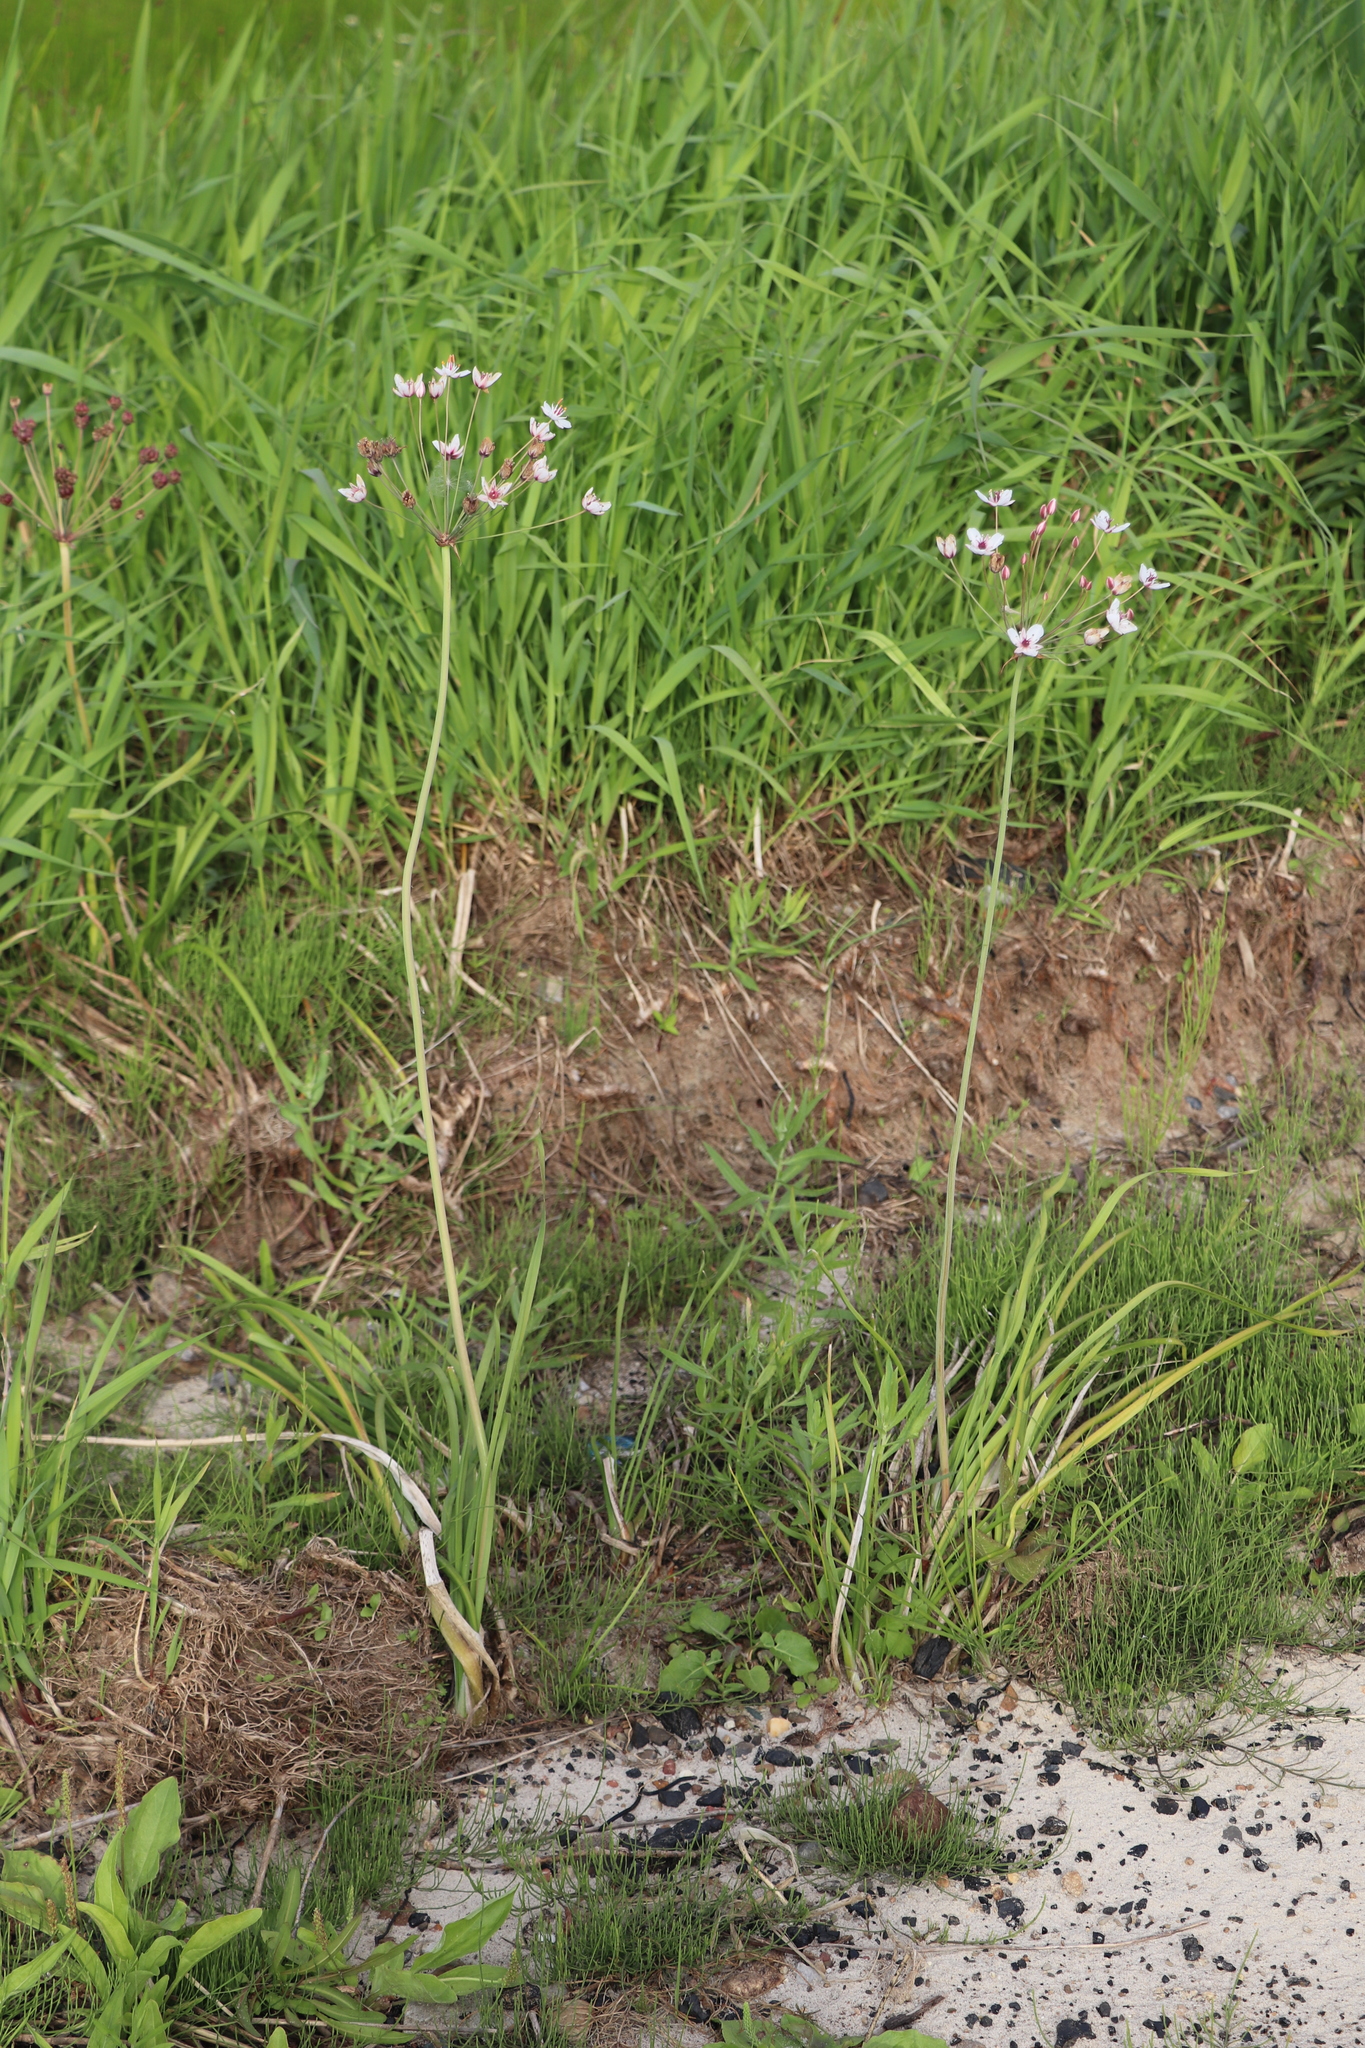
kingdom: Plantae
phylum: Tracheophyta
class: Liliopsida
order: Alismatales
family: Butomaceae
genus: Butomus
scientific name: Butomus umbellatus
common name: Flowering-rush
